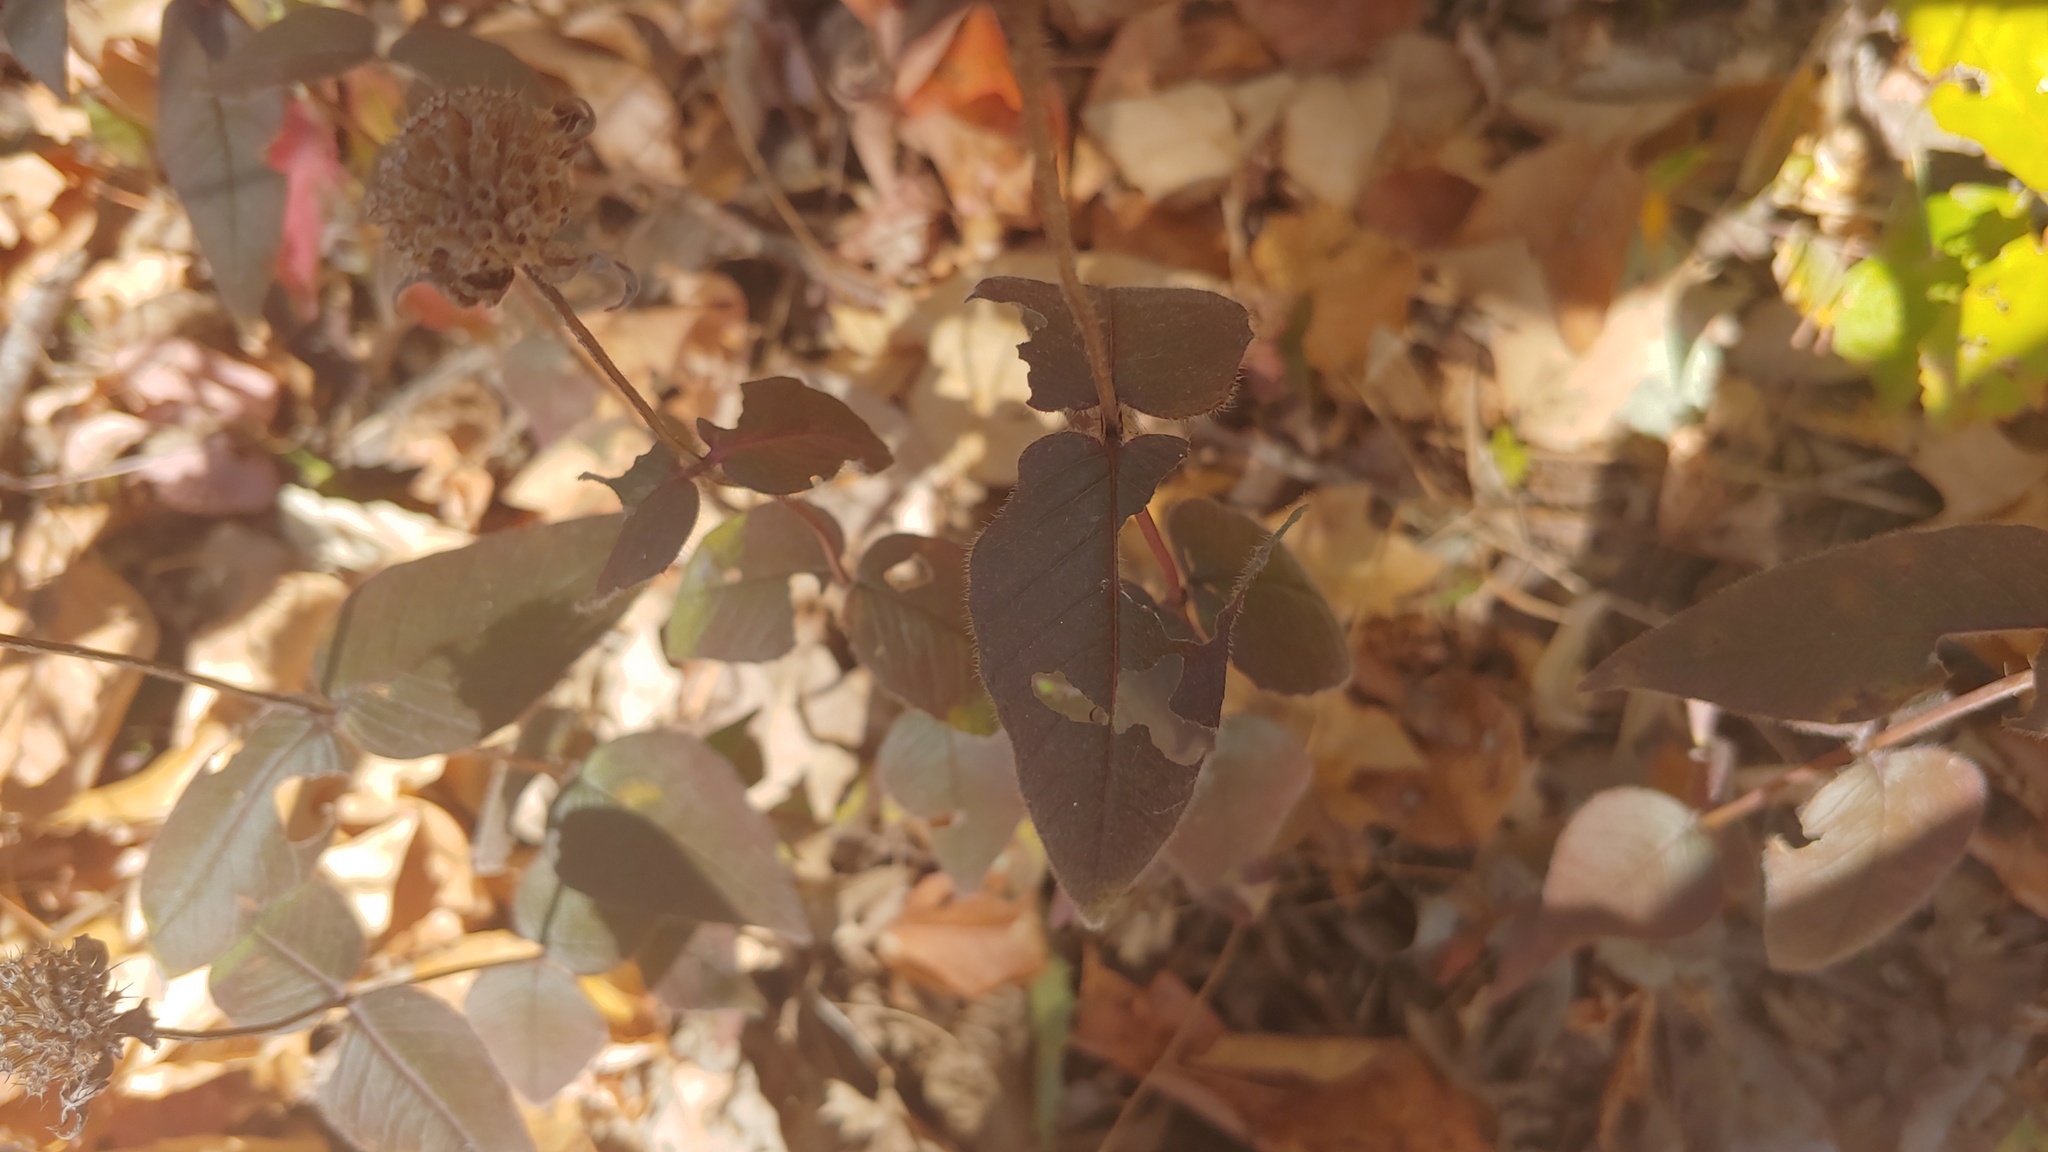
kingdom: Plantae
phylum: Tracheophyta
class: Magnoliopsida
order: Lamiales
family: Lamiaceae
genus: Monarda
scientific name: Monarda bradburiana
